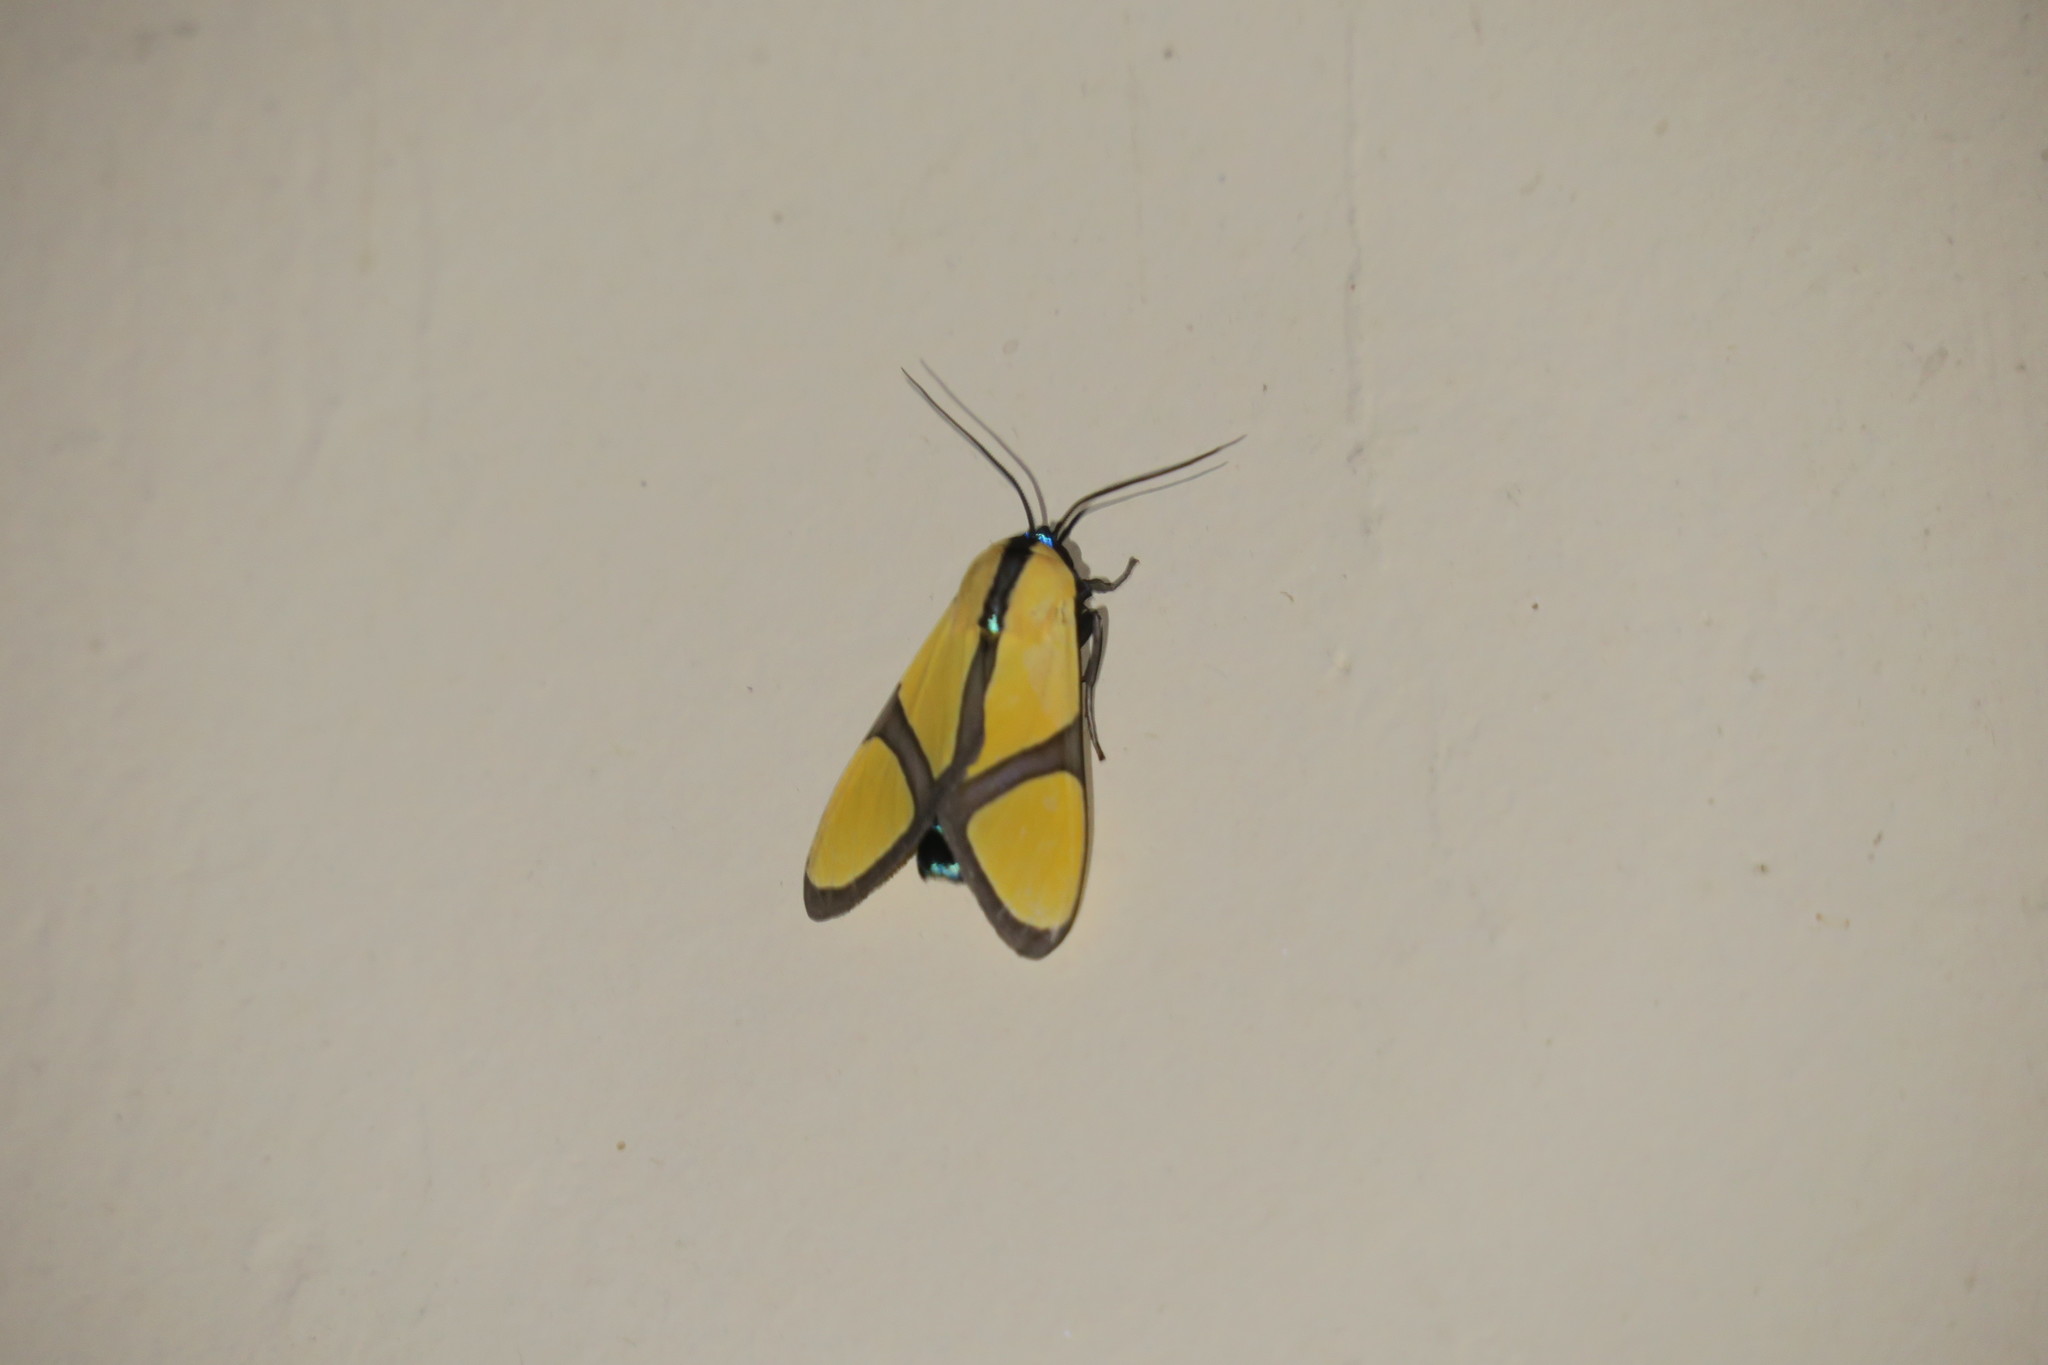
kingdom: Animalia
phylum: Arthropoda
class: Insecta
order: Lepidoptera
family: Erebidae
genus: Ormetica
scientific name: Ormetica ameoides
